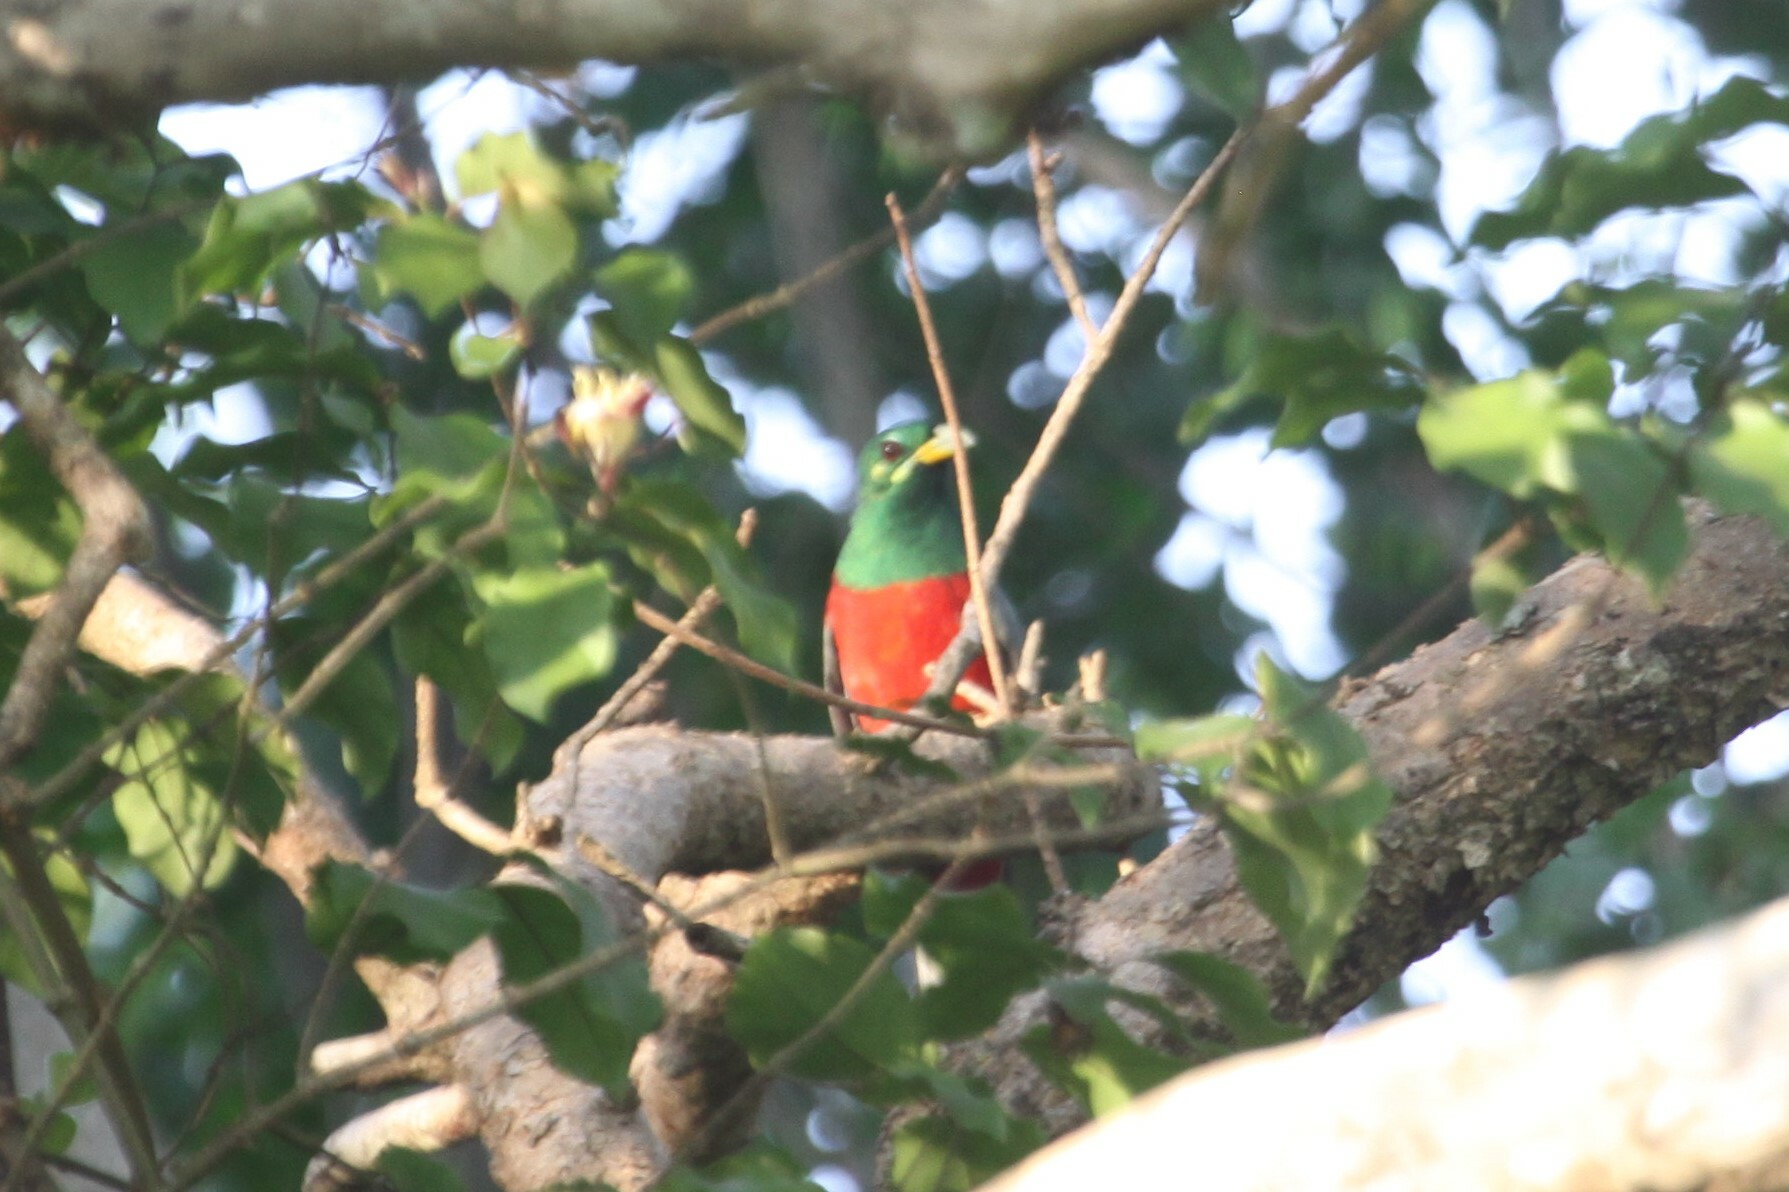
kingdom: Animalia
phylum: Chordata
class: Aves
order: Trogoniformes
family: Trogonidae
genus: Apaloderma
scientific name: Apaloderma narina
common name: Narina trogon
